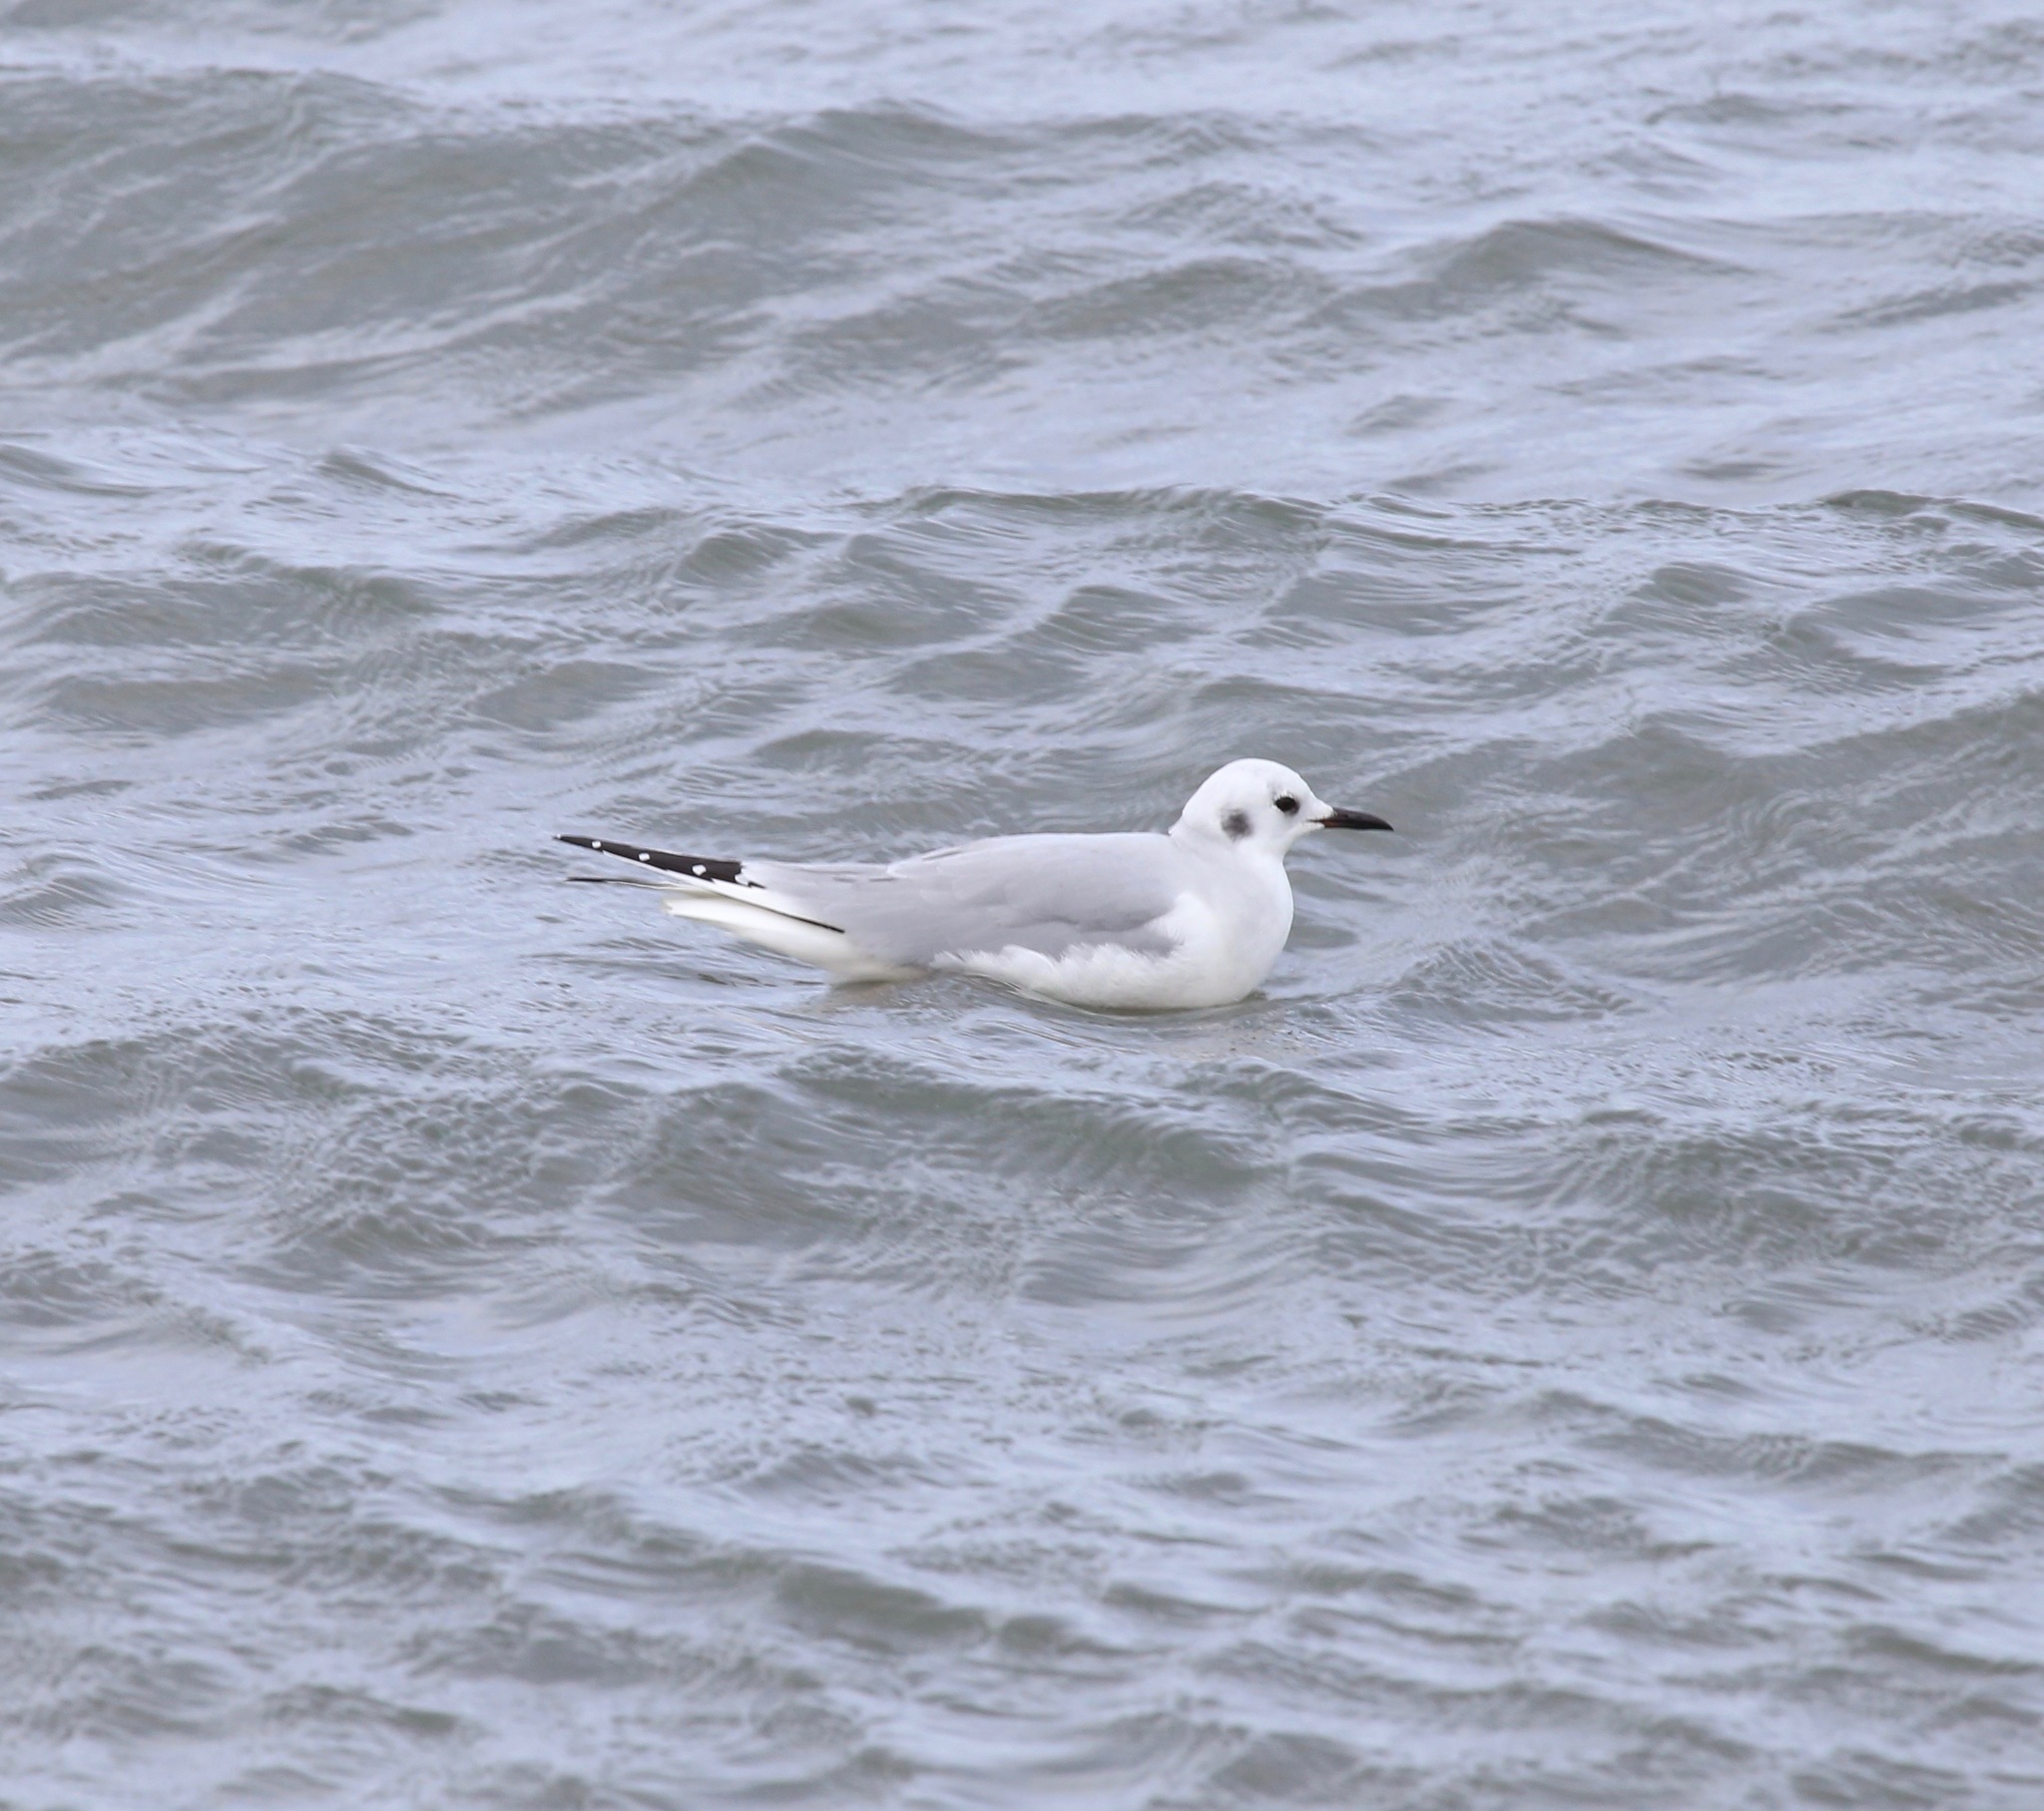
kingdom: Animalia
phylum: Chordata
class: Aves
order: Charadriiformes
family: Laridae
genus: Chroicocephalus
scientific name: Chroicocephalus philadelphia
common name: Bonaparte's gull
